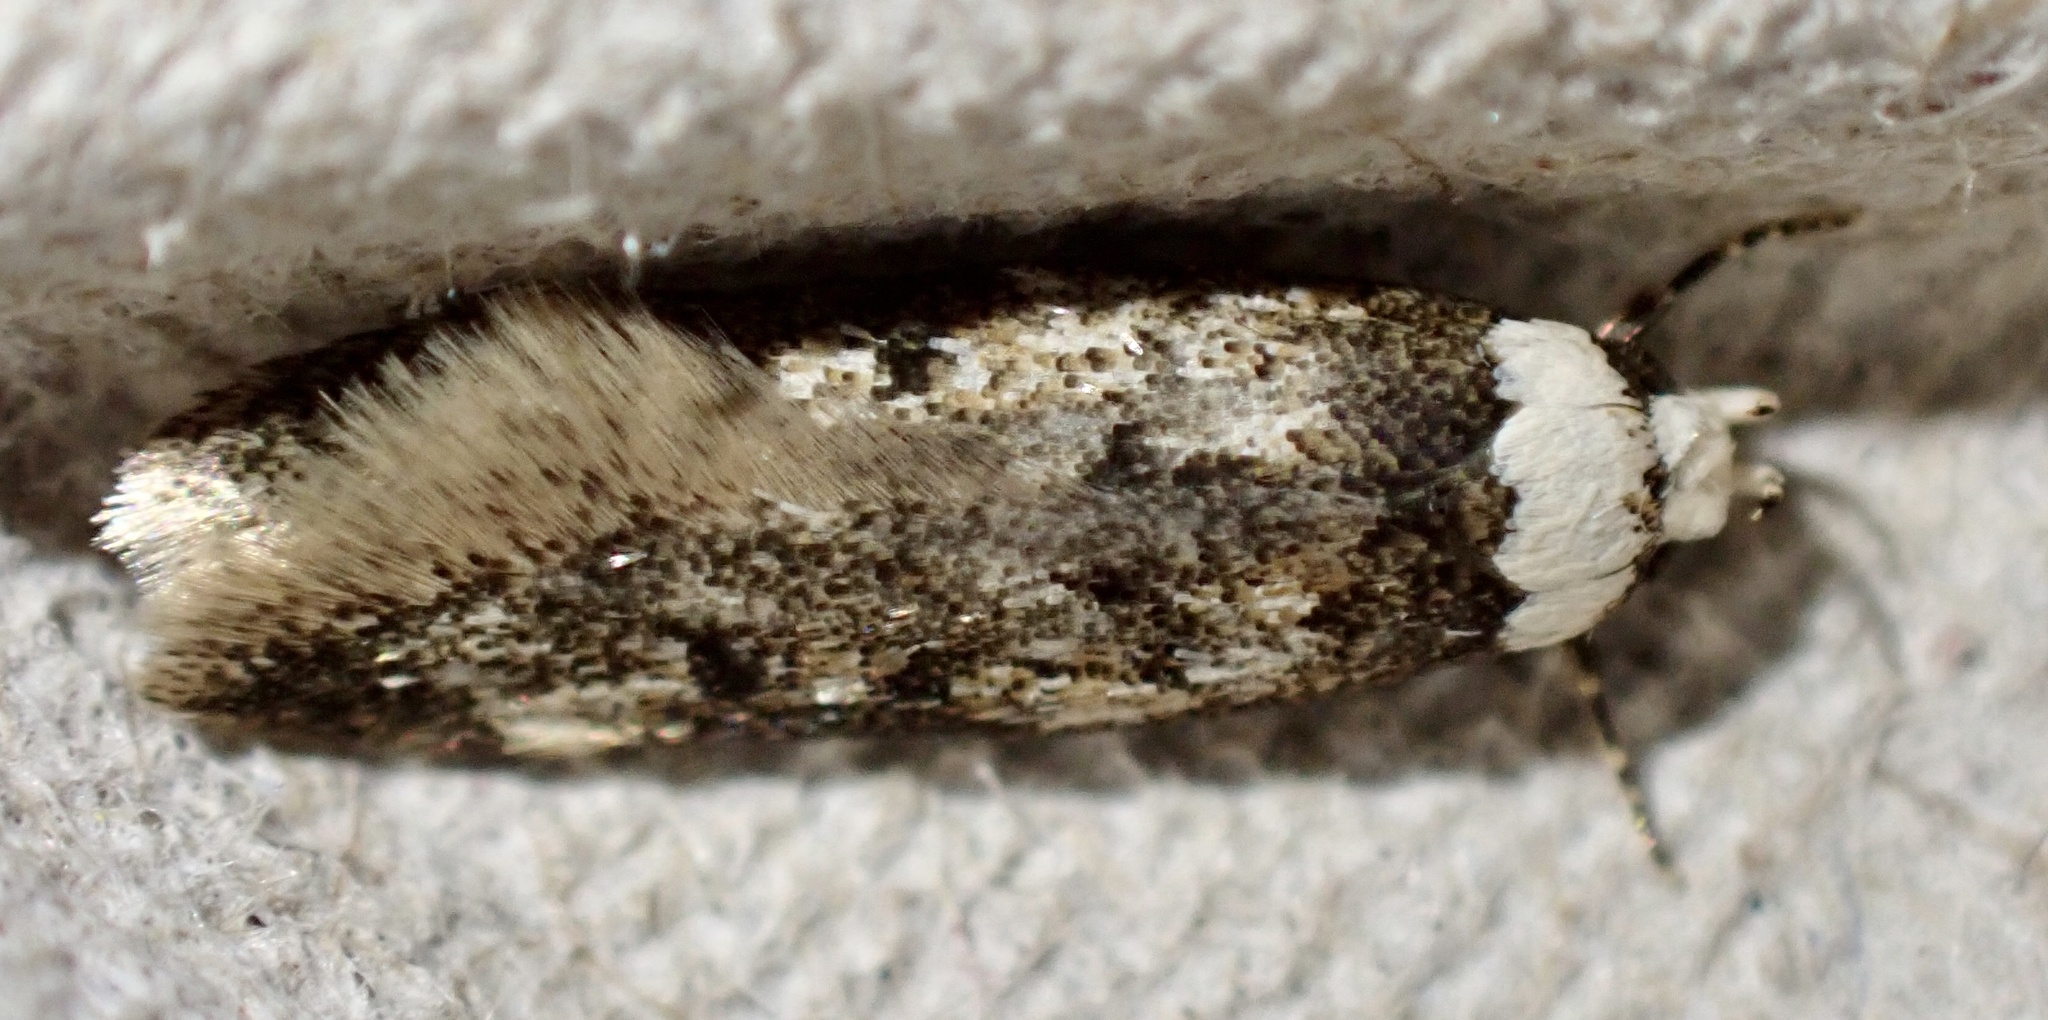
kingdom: Animalia
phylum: Arthropoda
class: Insecta
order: Lepidoptera
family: Oecophoridae
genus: Endrosis
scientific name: Endrosis sarcitrella
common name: White-shouldered house moth
